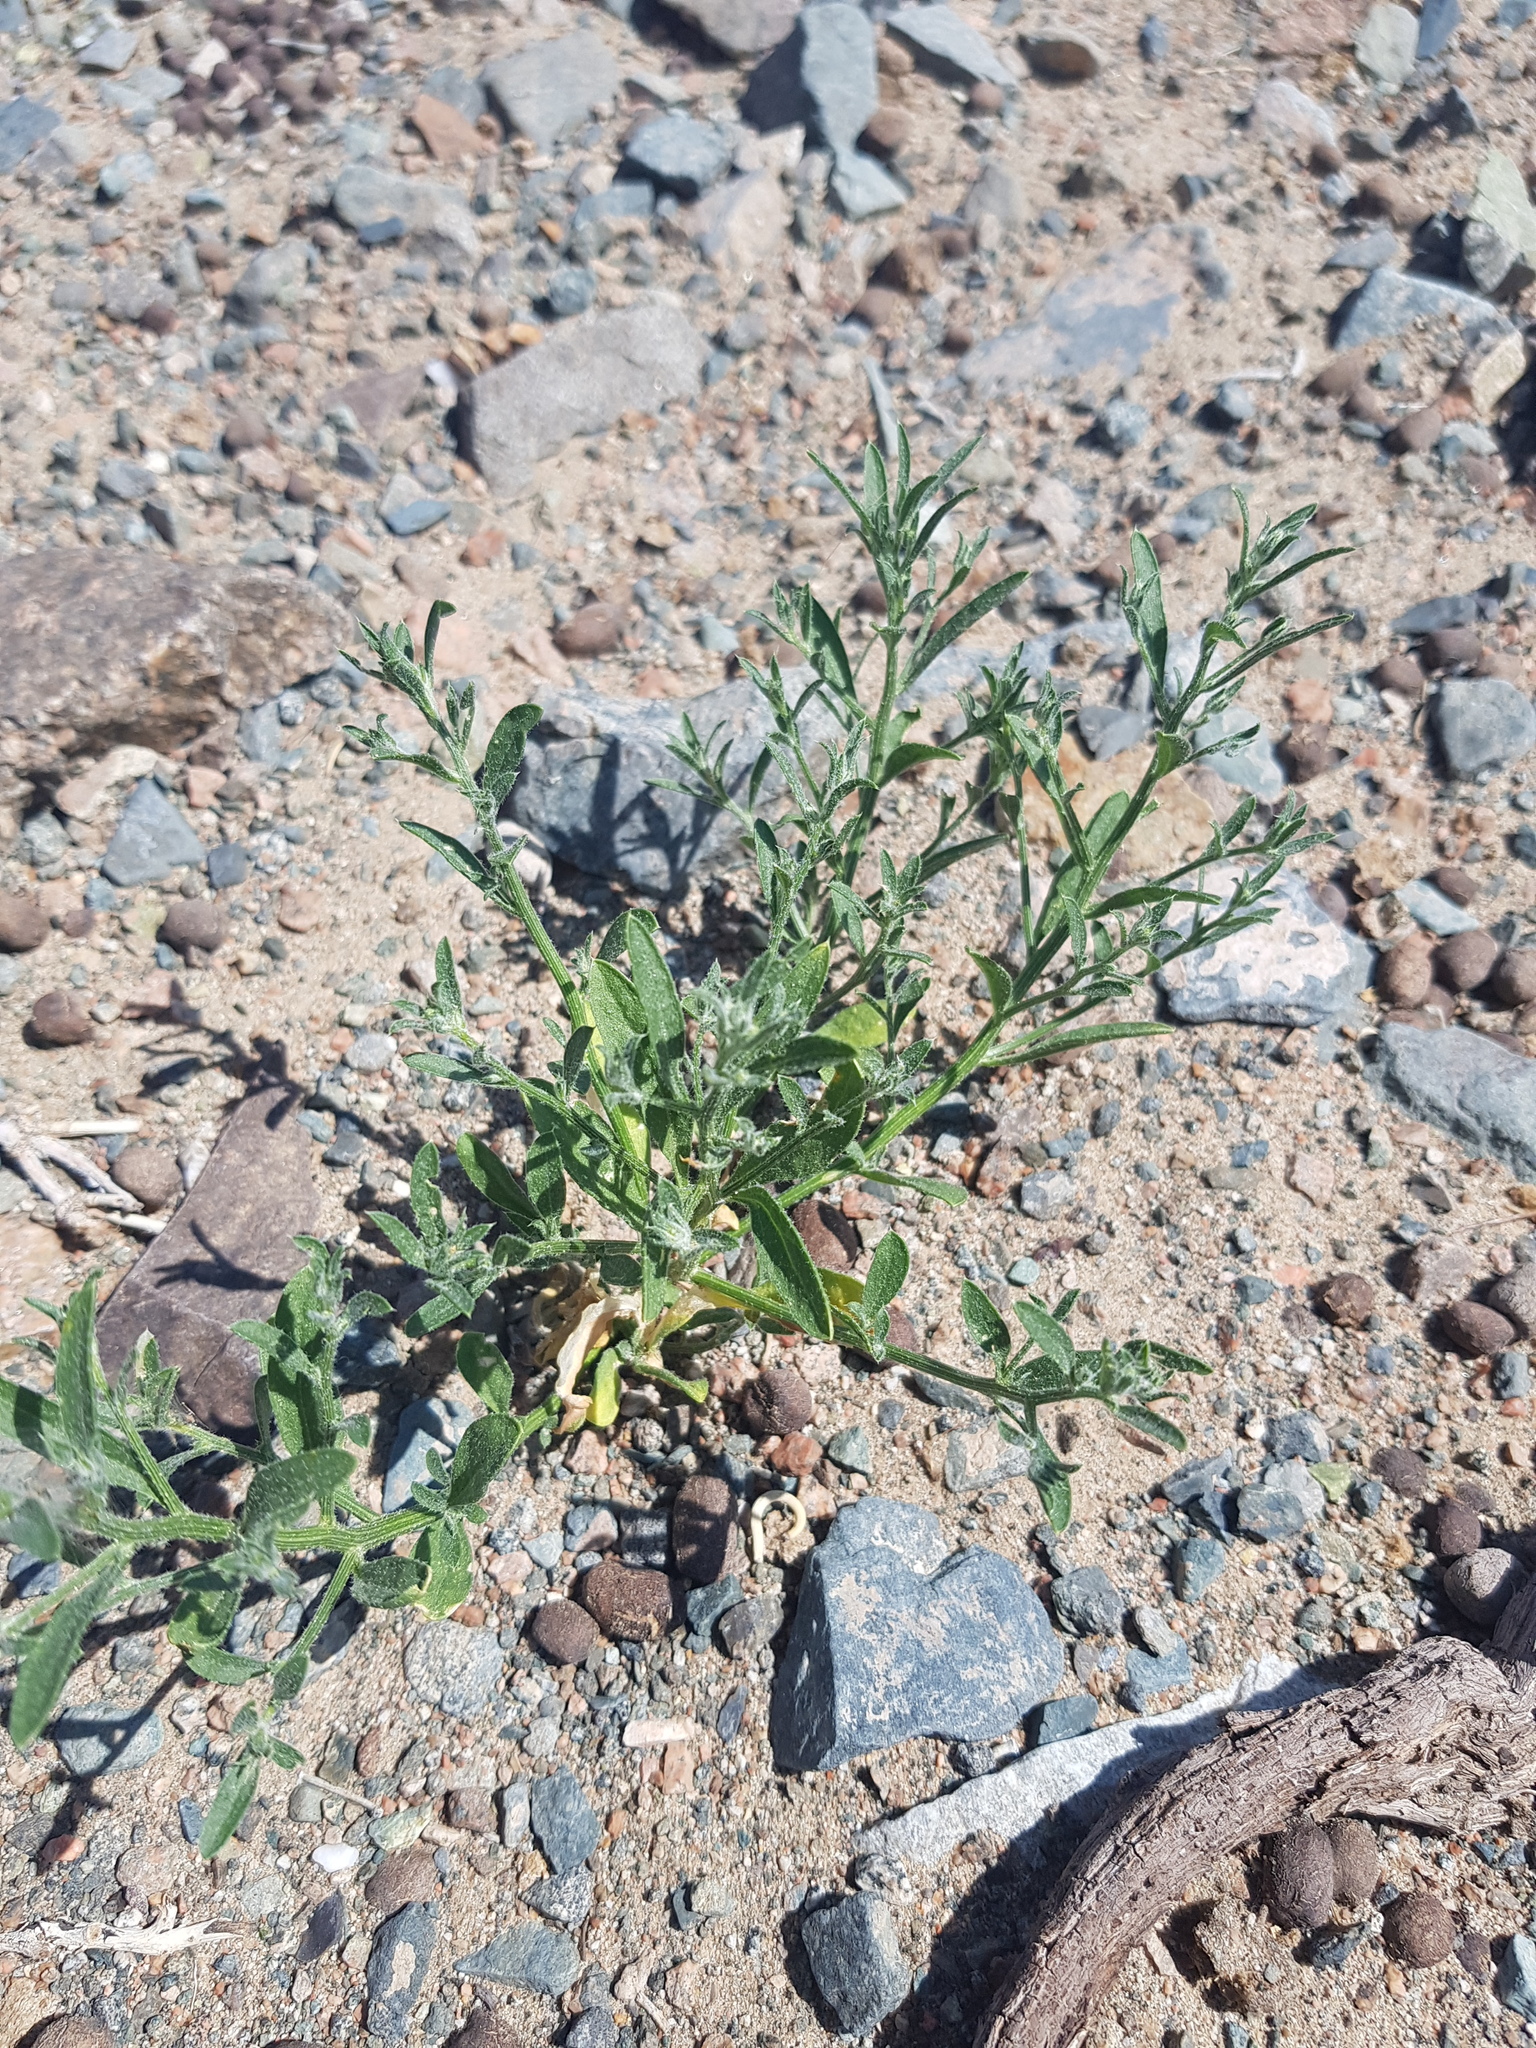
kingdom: Plantae
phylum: Tracheophyta
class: Magnoliopsida
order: Brassicales
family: Brassicaceae
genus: Dontostemon
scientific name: Dontostemon elegans
